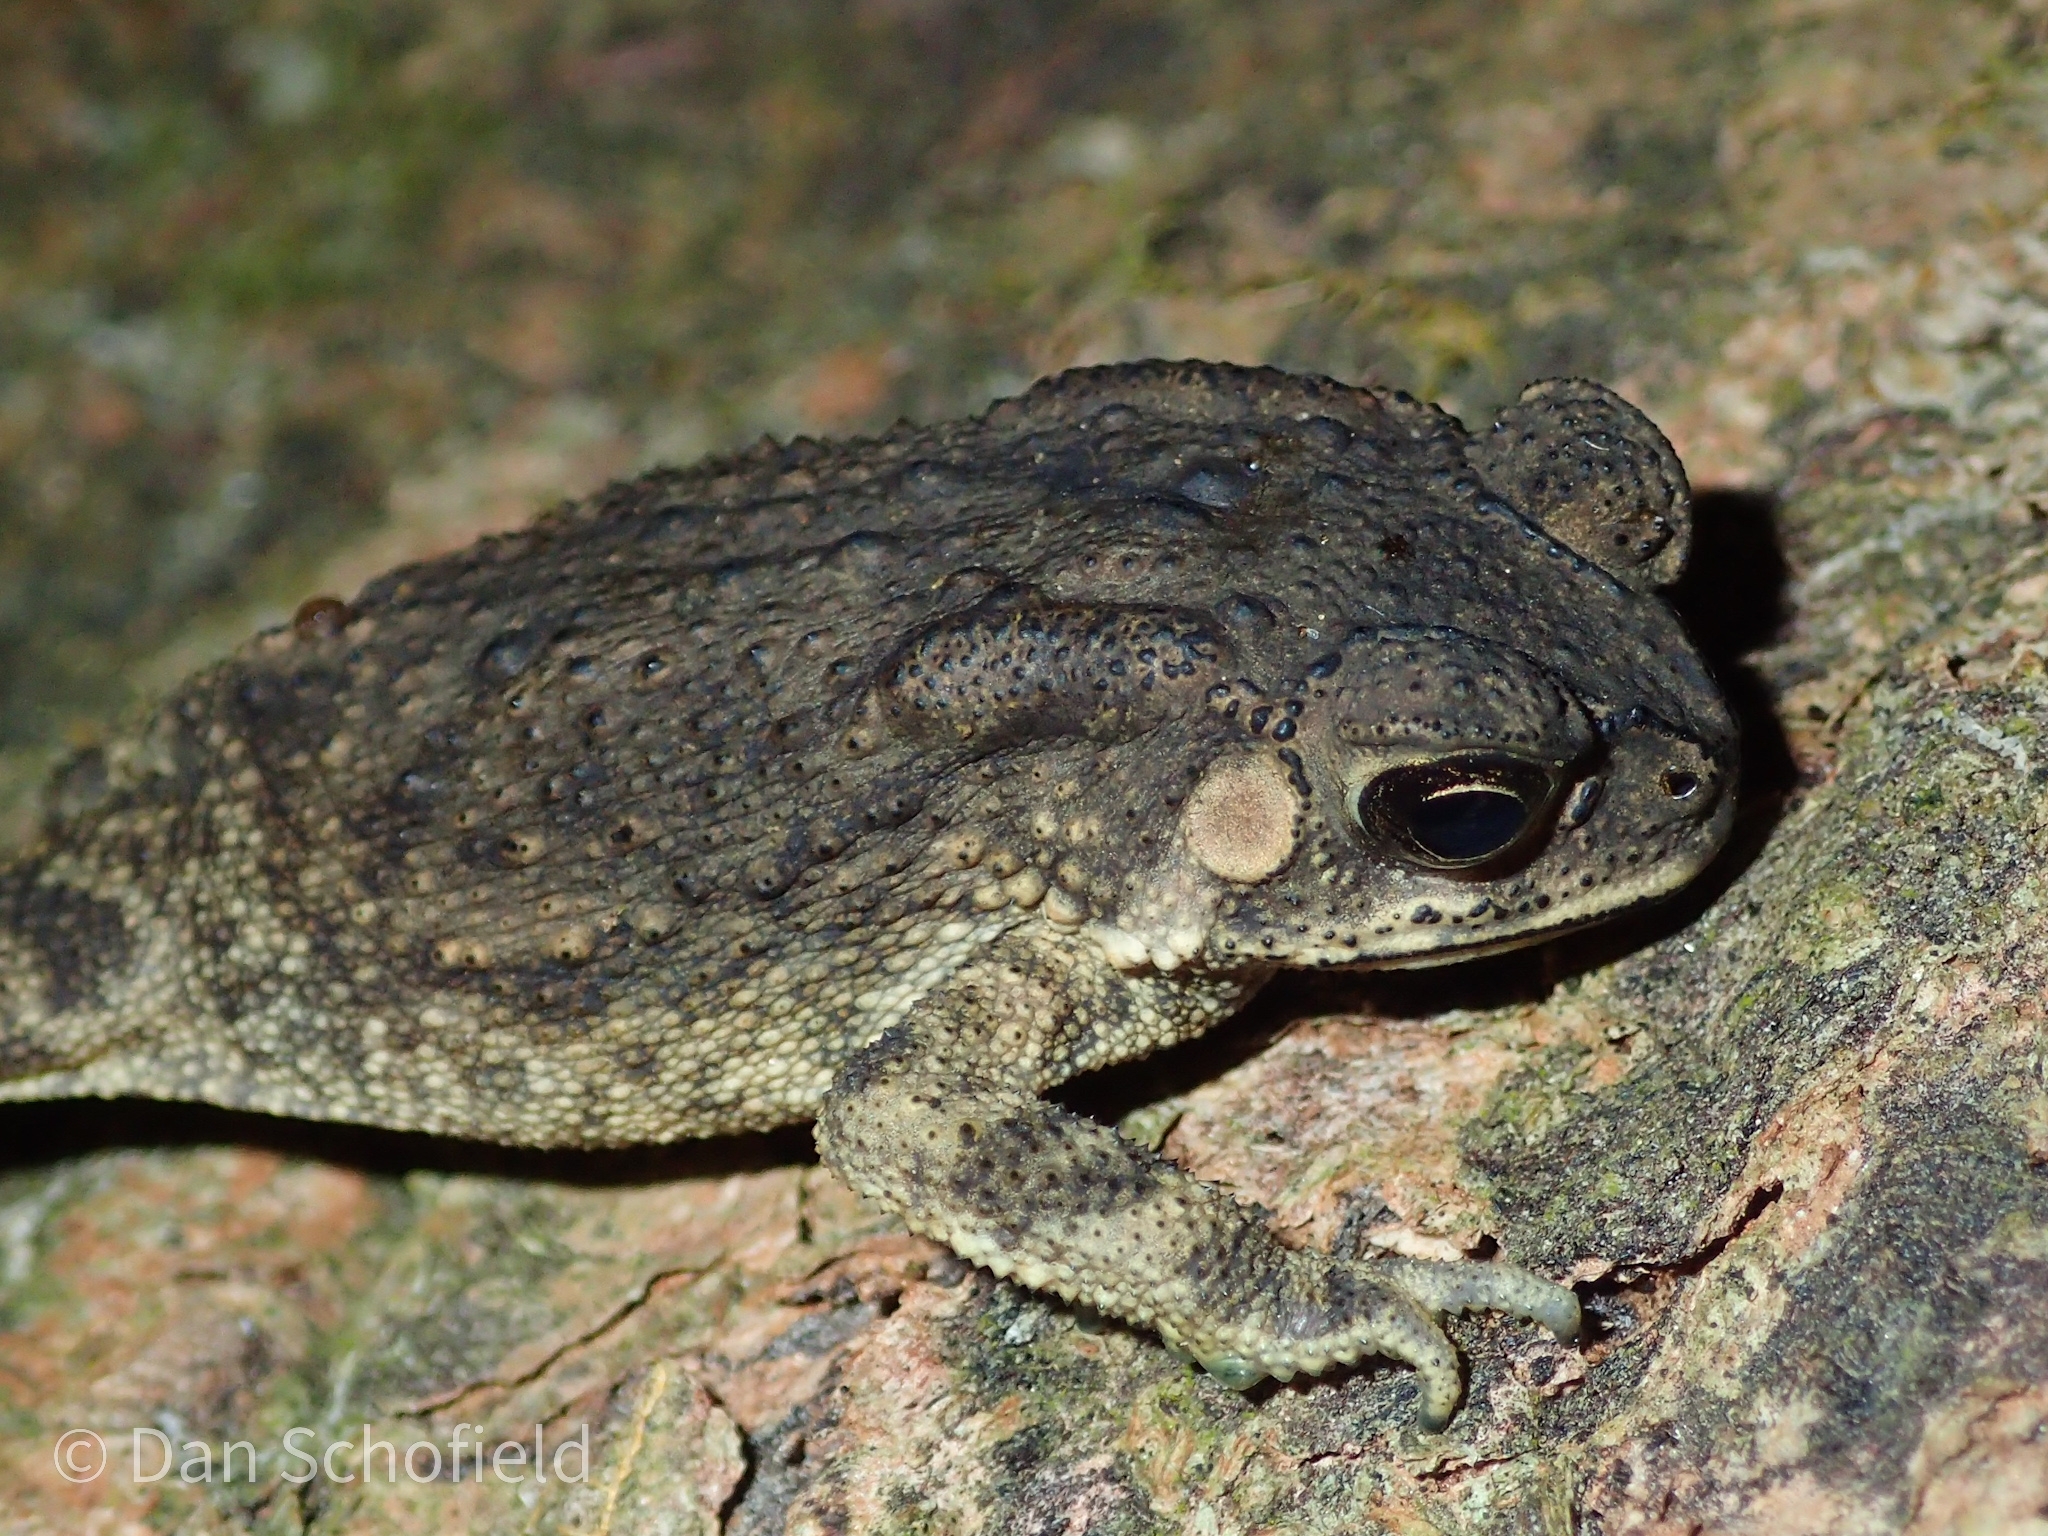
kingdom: Animalia
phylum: Chordata
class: Amphibia
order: Anura
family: Bufonidae
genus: Duttaphrynus
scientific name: Duttaphrynus melanostictus
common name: Common sunda toad
